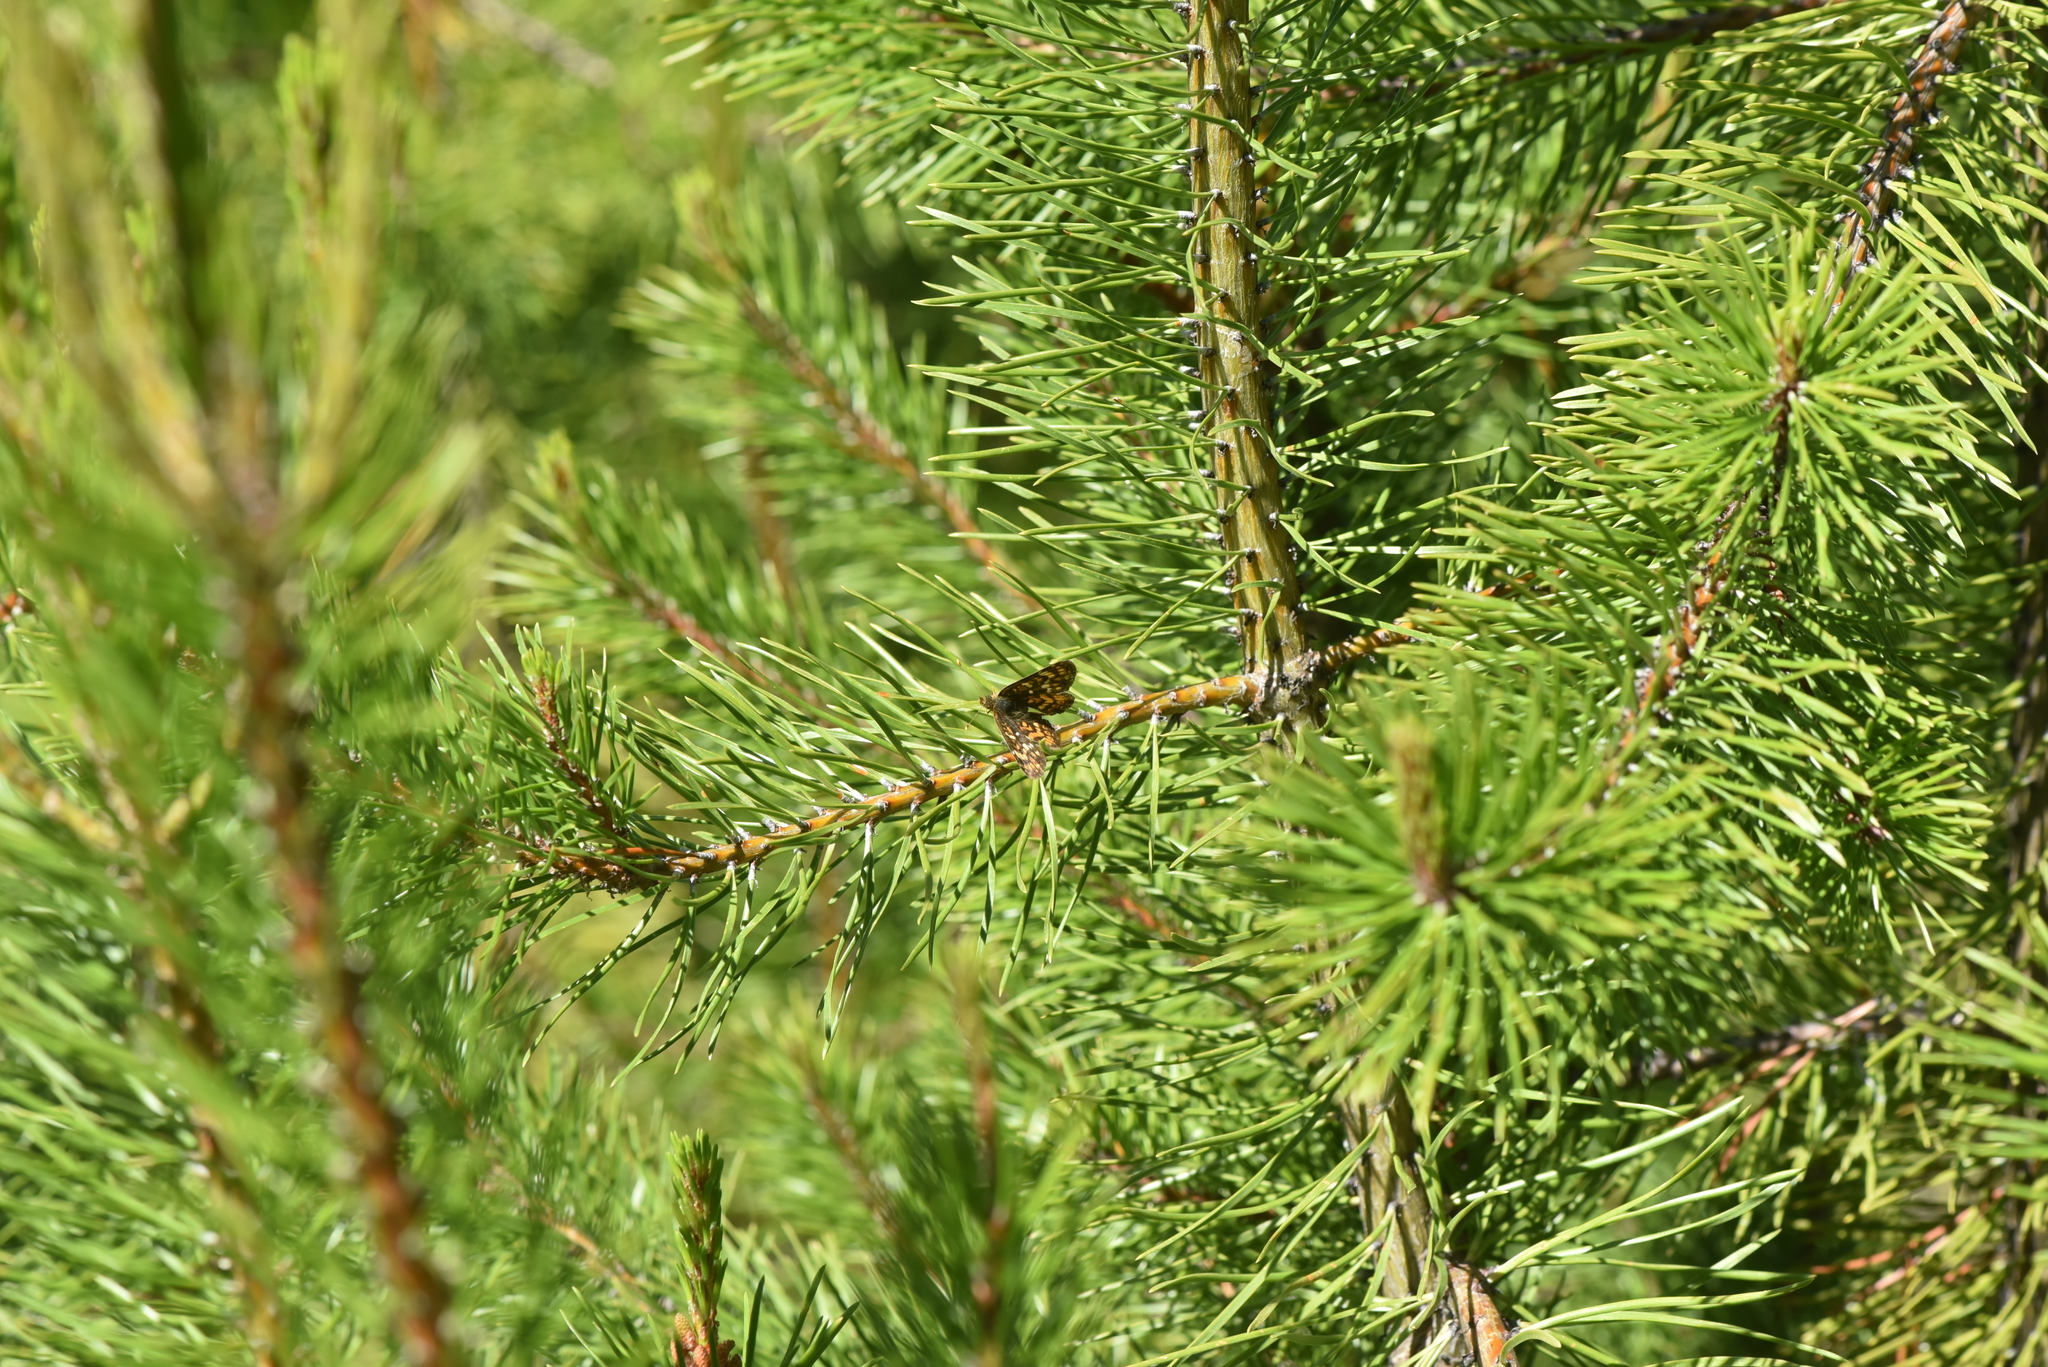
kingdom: Animalia
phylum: Arthropoda
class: Insecta
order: Lepidoptera
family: Nymphalidae
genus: Phyciodes
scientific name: Phyciodes tharos
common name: Pearl crescent
